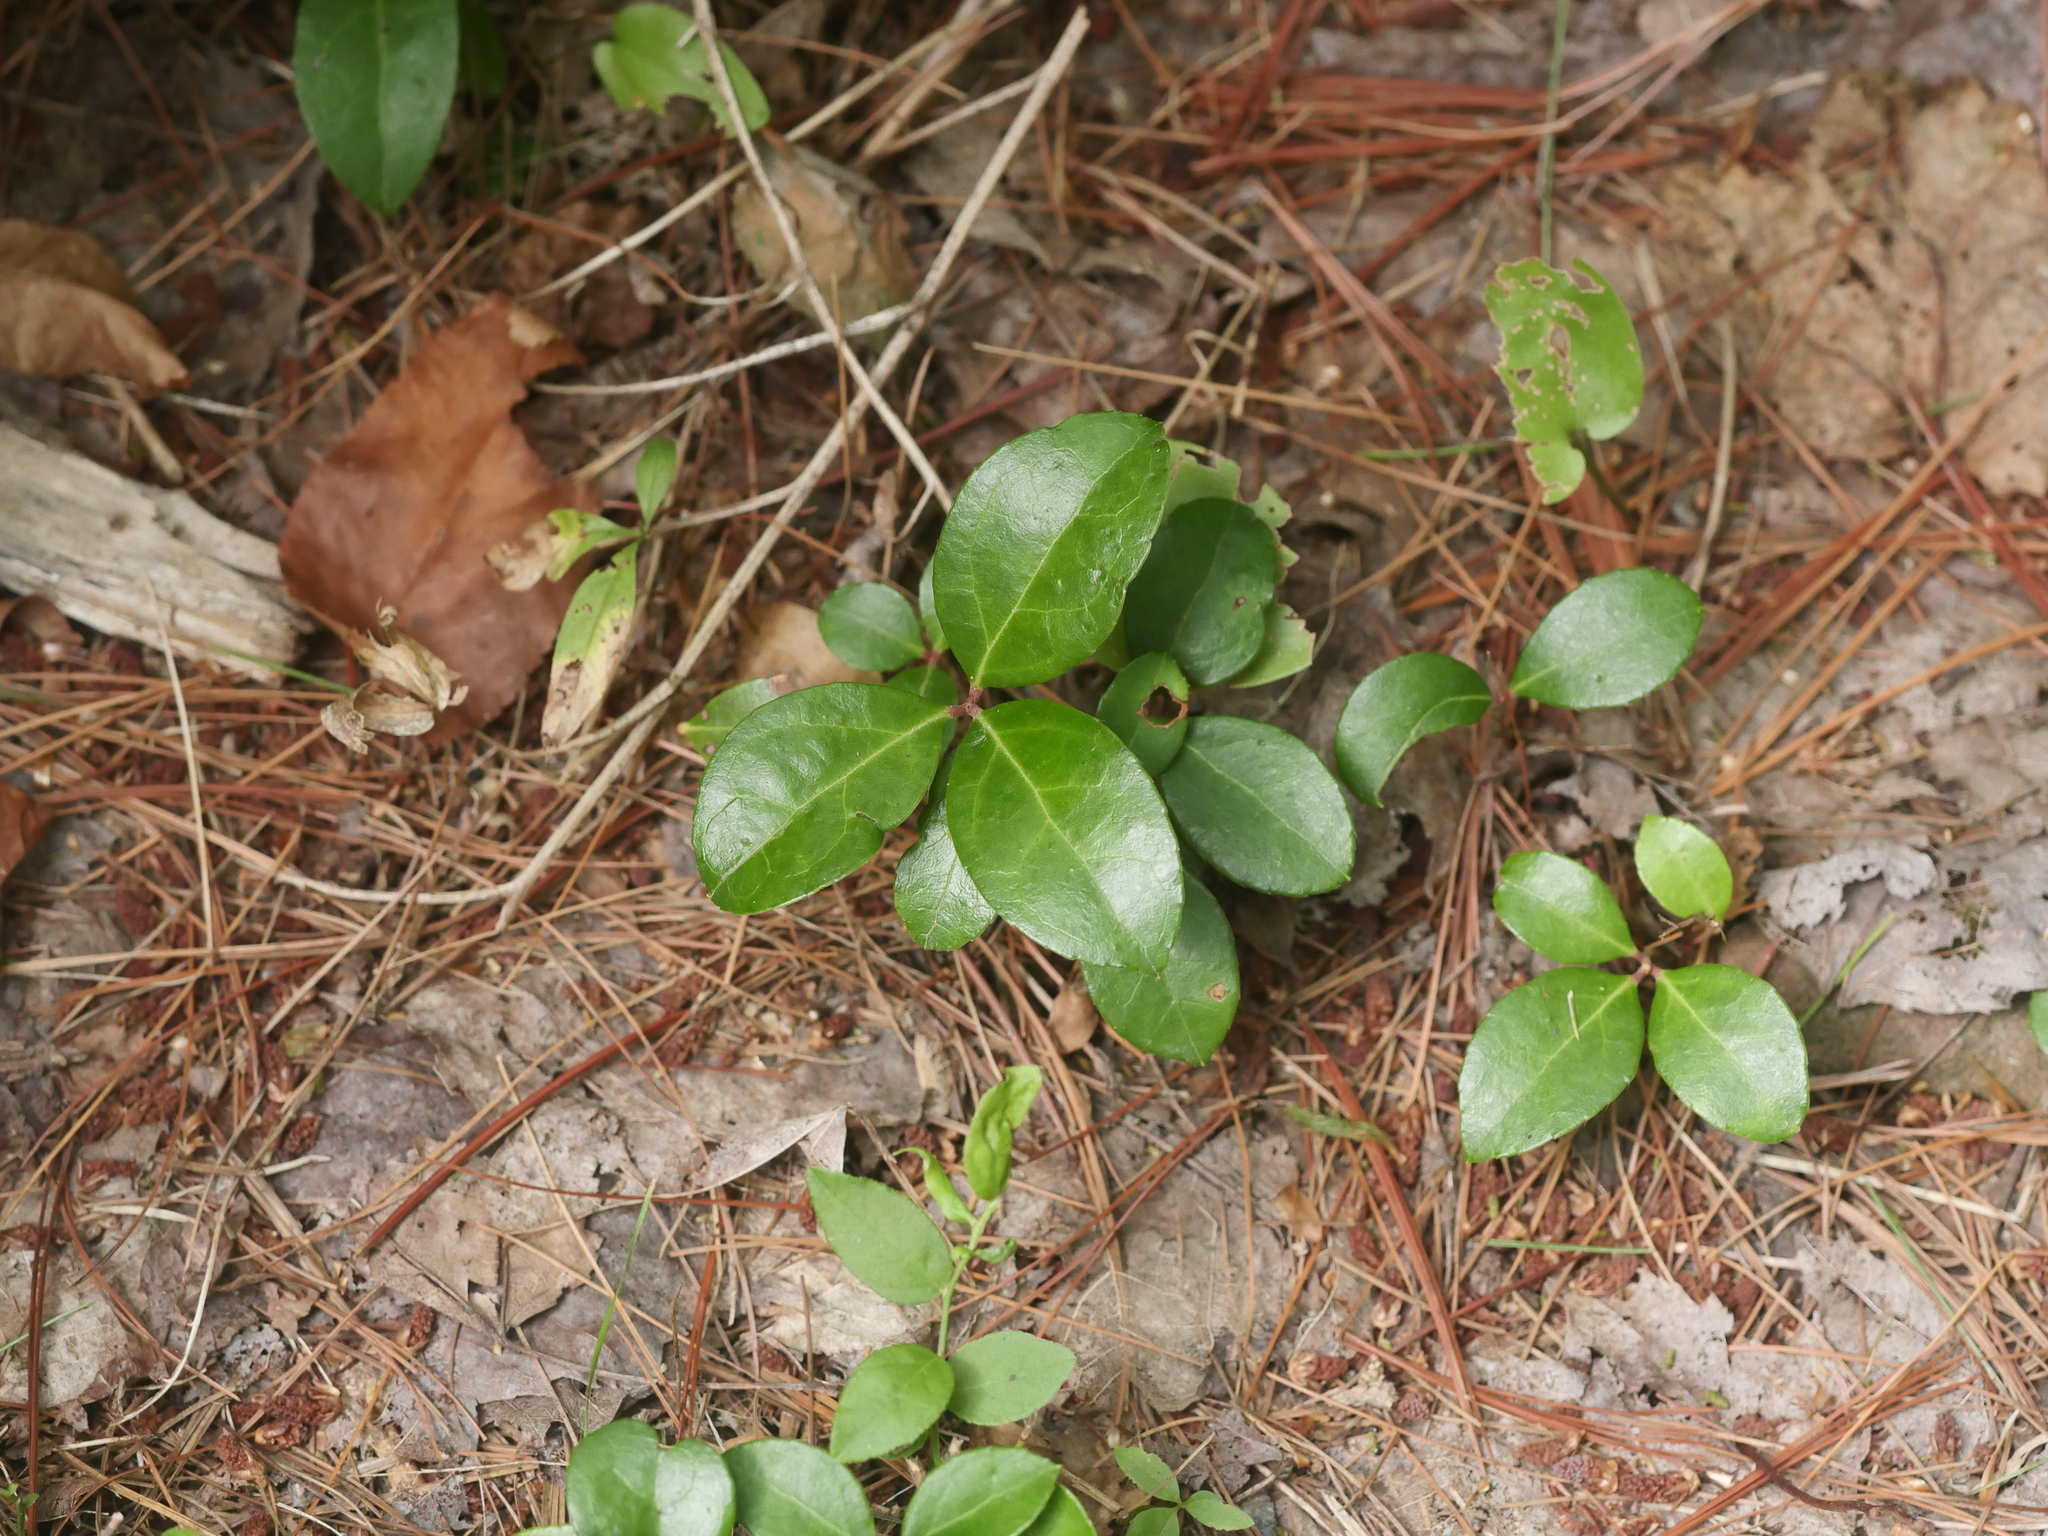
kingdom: Plantae
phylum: Tracheophyta
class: Magnoliopsida
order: Ericales
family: Ericaceae
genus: Gaultheria
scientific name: Gaultheria procumbens
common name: Checkerberry
